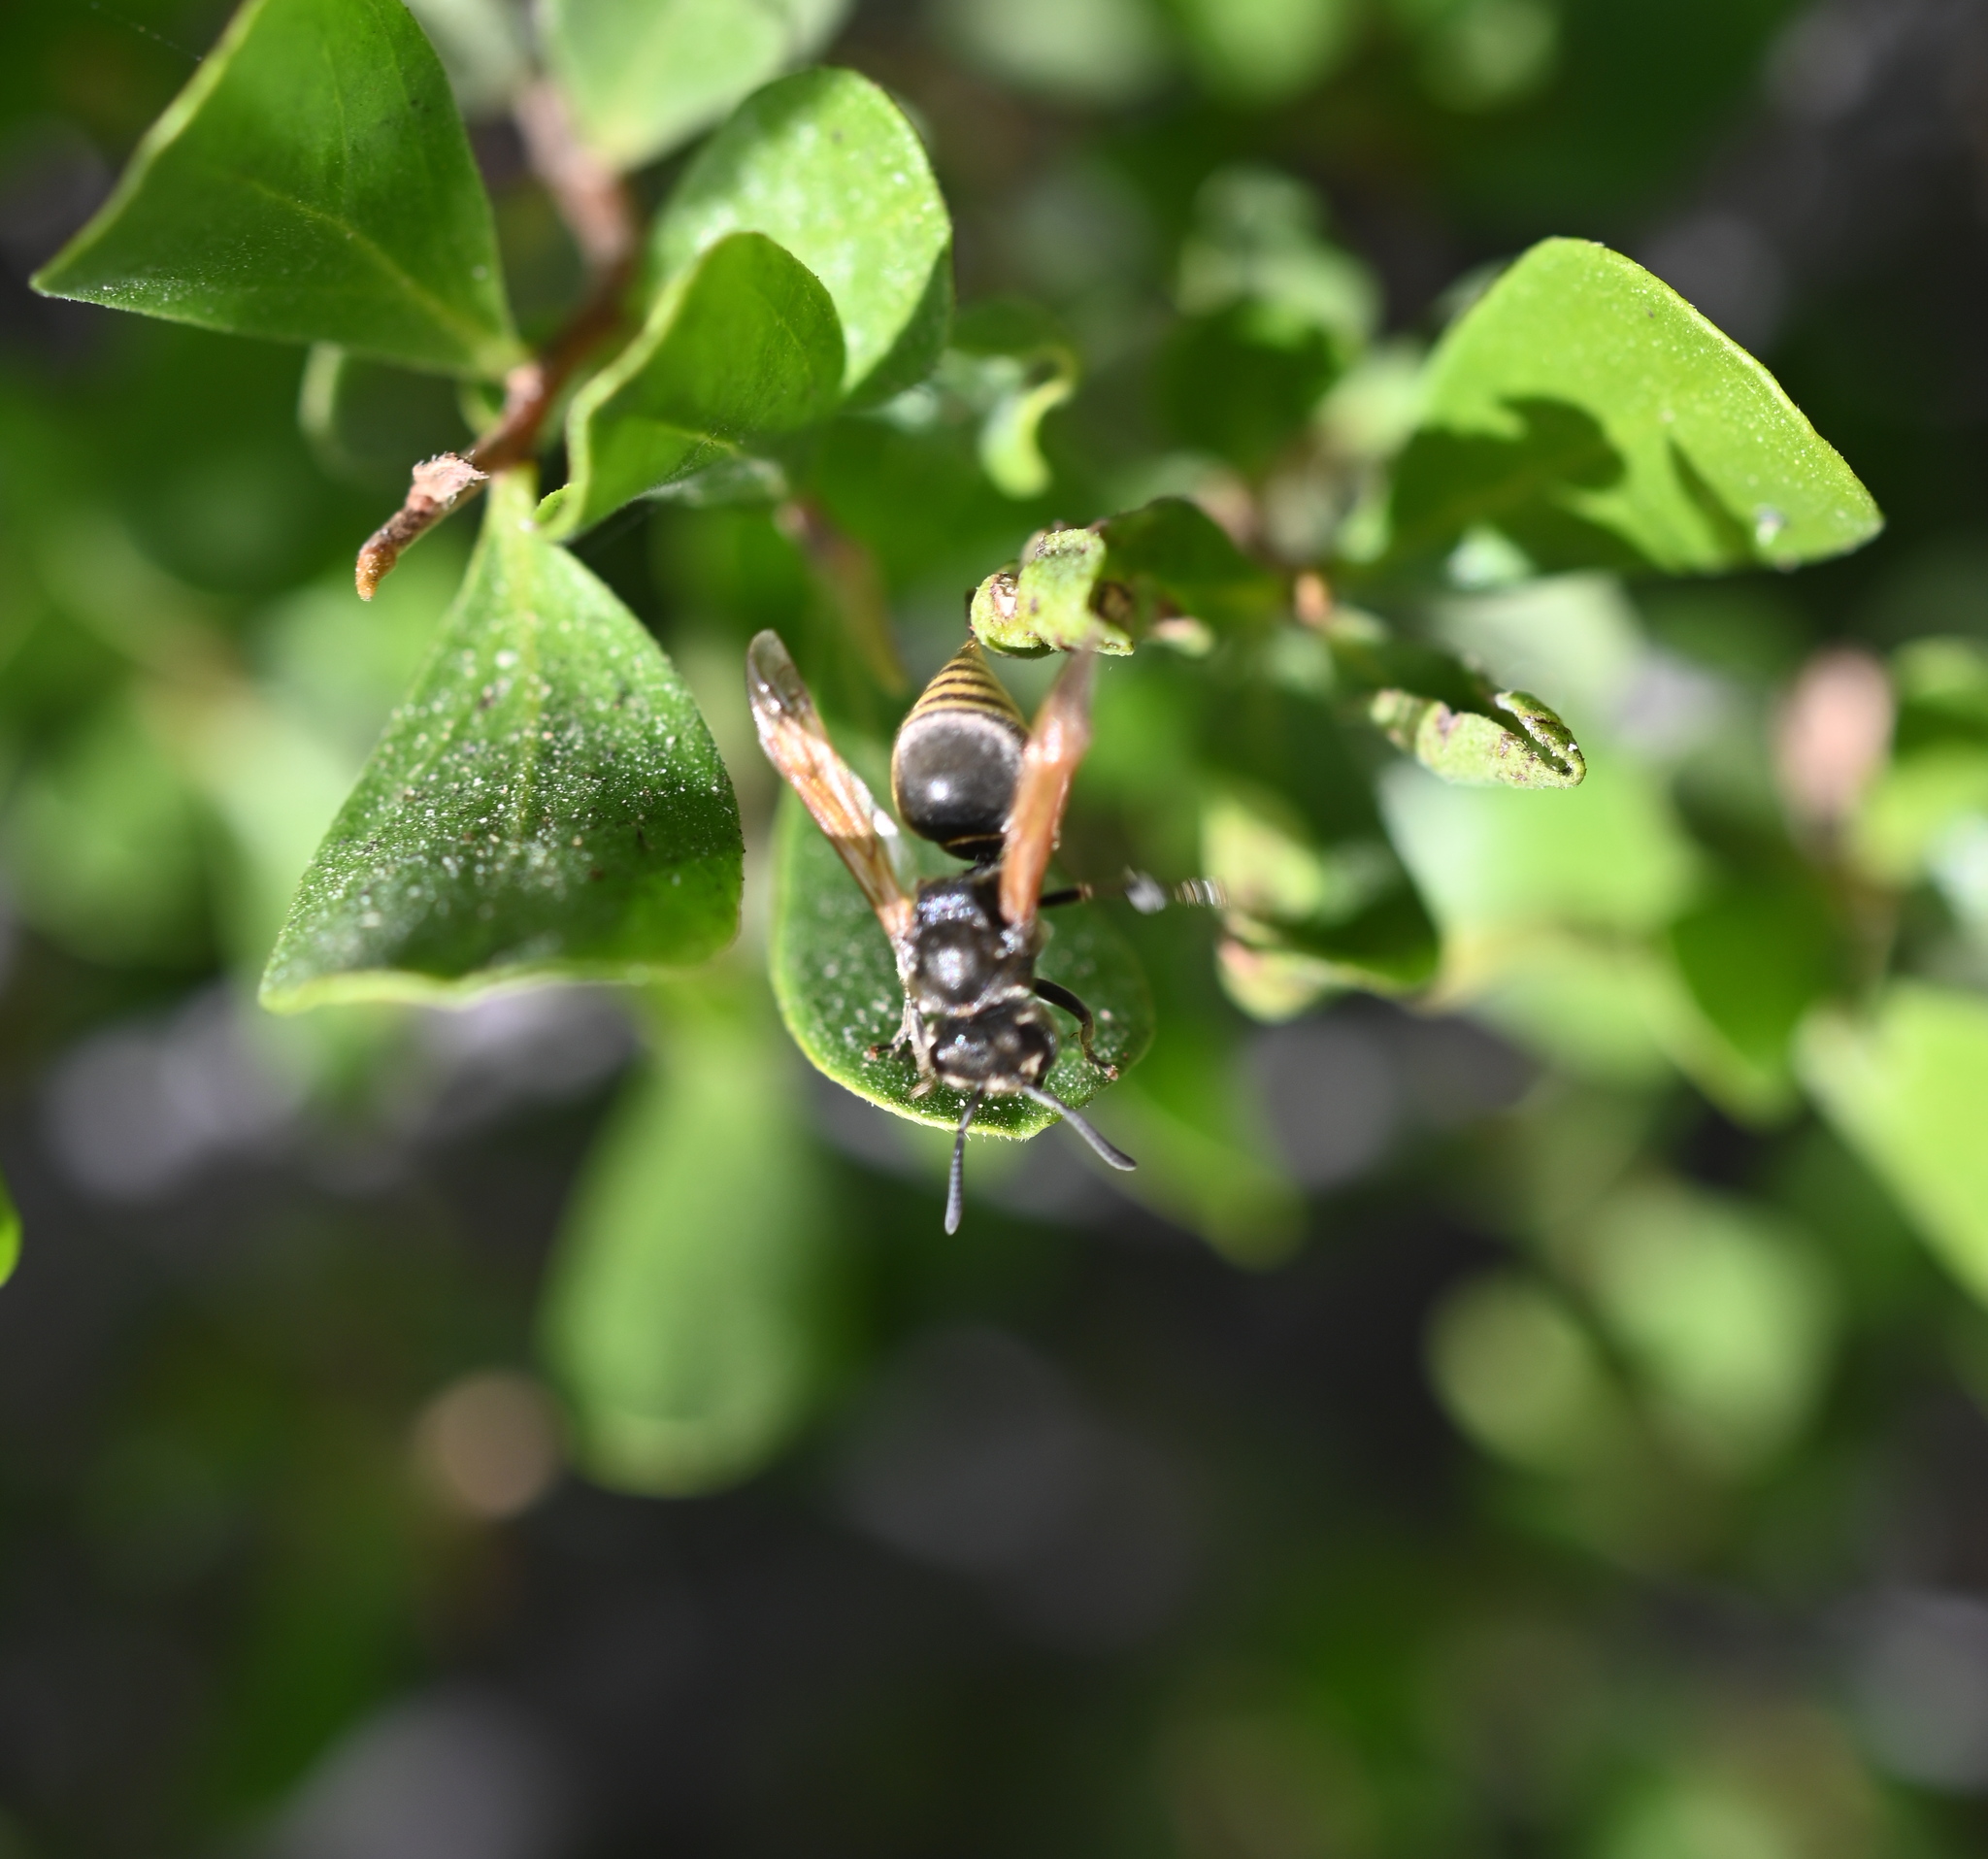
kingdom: Animalia
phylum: Arthropoda
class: Insecta
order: Hymenoptera
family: Vespidae
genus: Brachygastra
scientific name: Brachygastra mellifica
